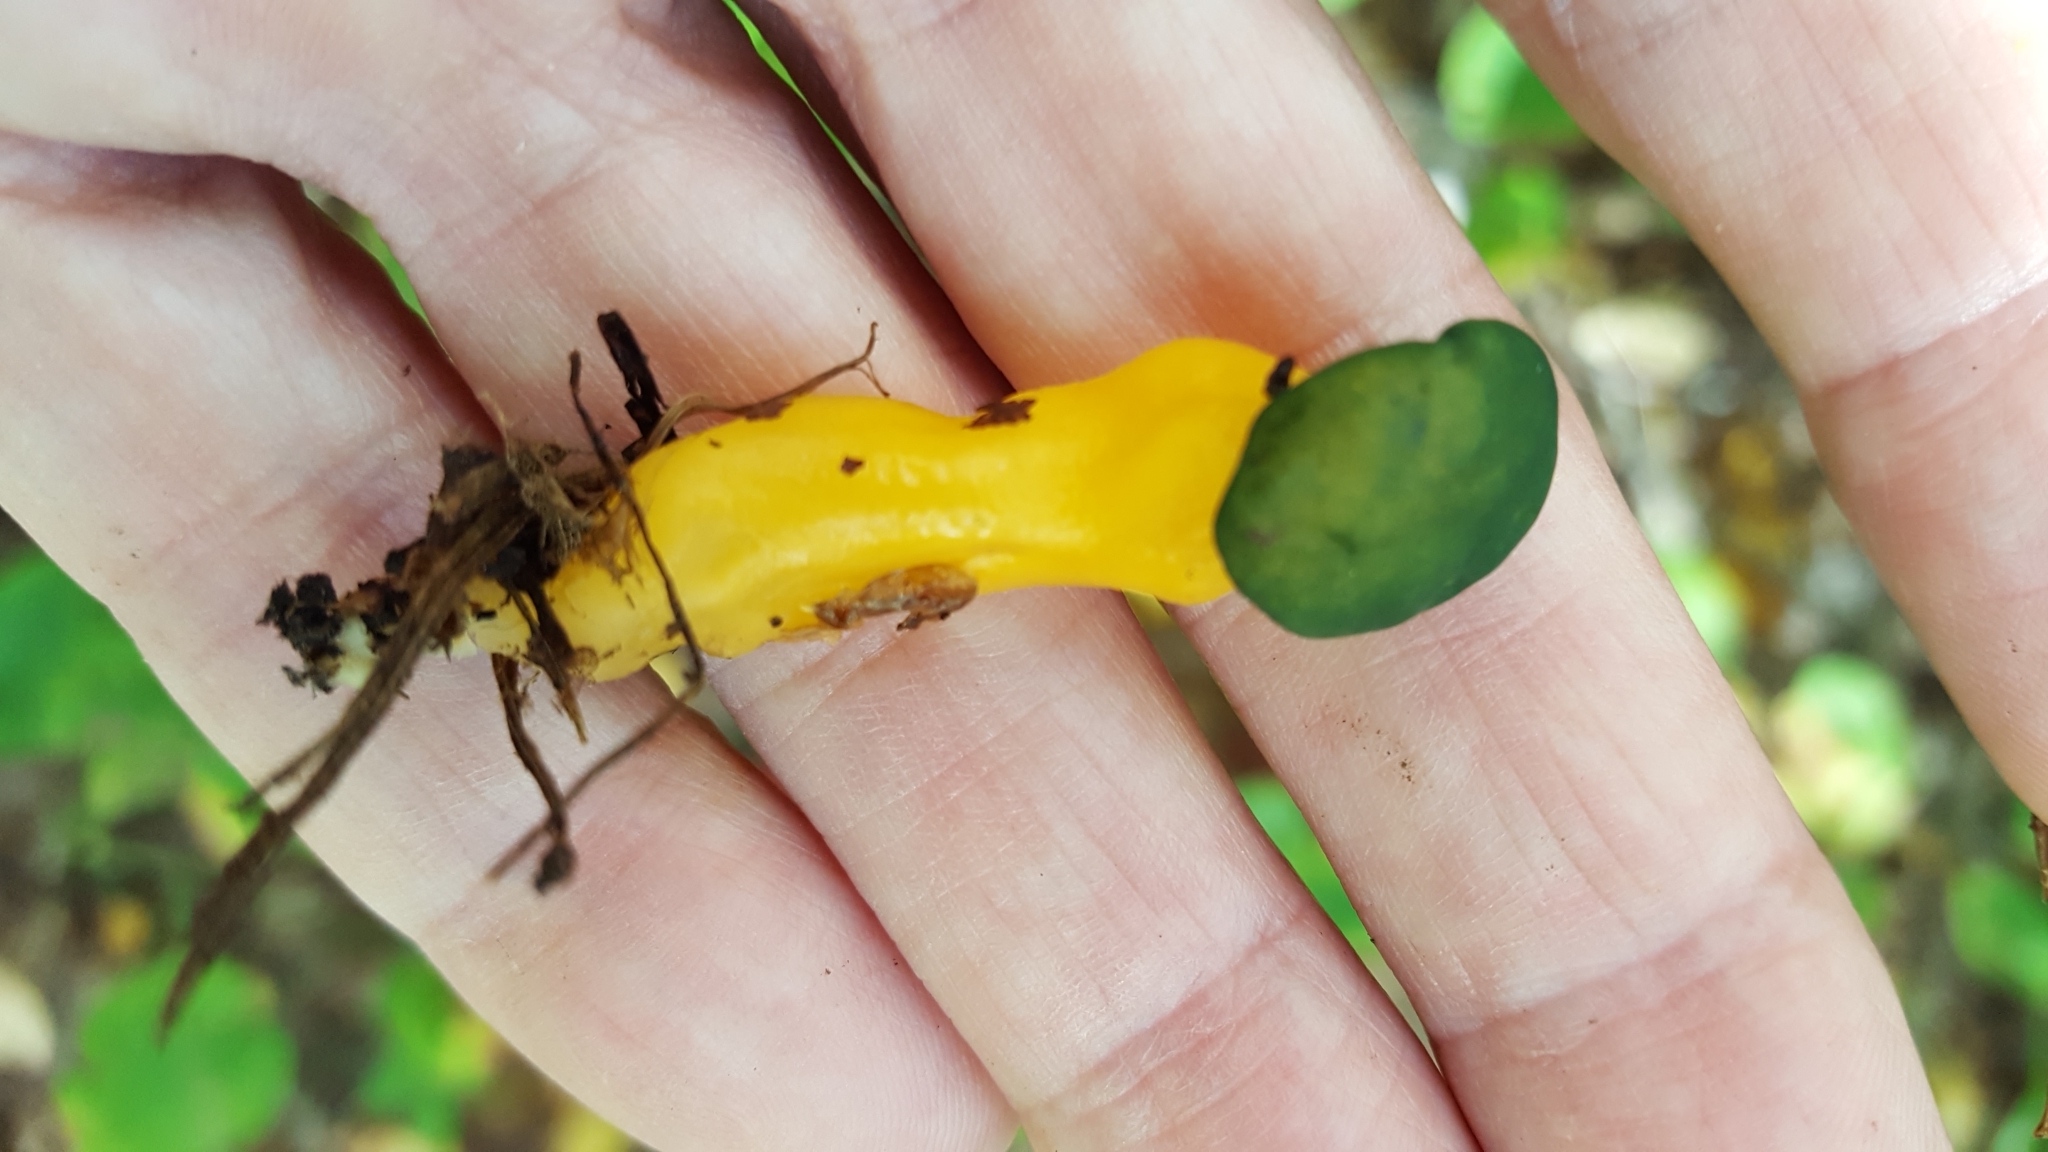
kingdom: Fungi
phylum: Ascomycota
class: Leotiomycetes
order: Leotiales
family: Leotiaceae
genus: Leotia
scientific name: Leotia lubrica
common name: Jellybaby
